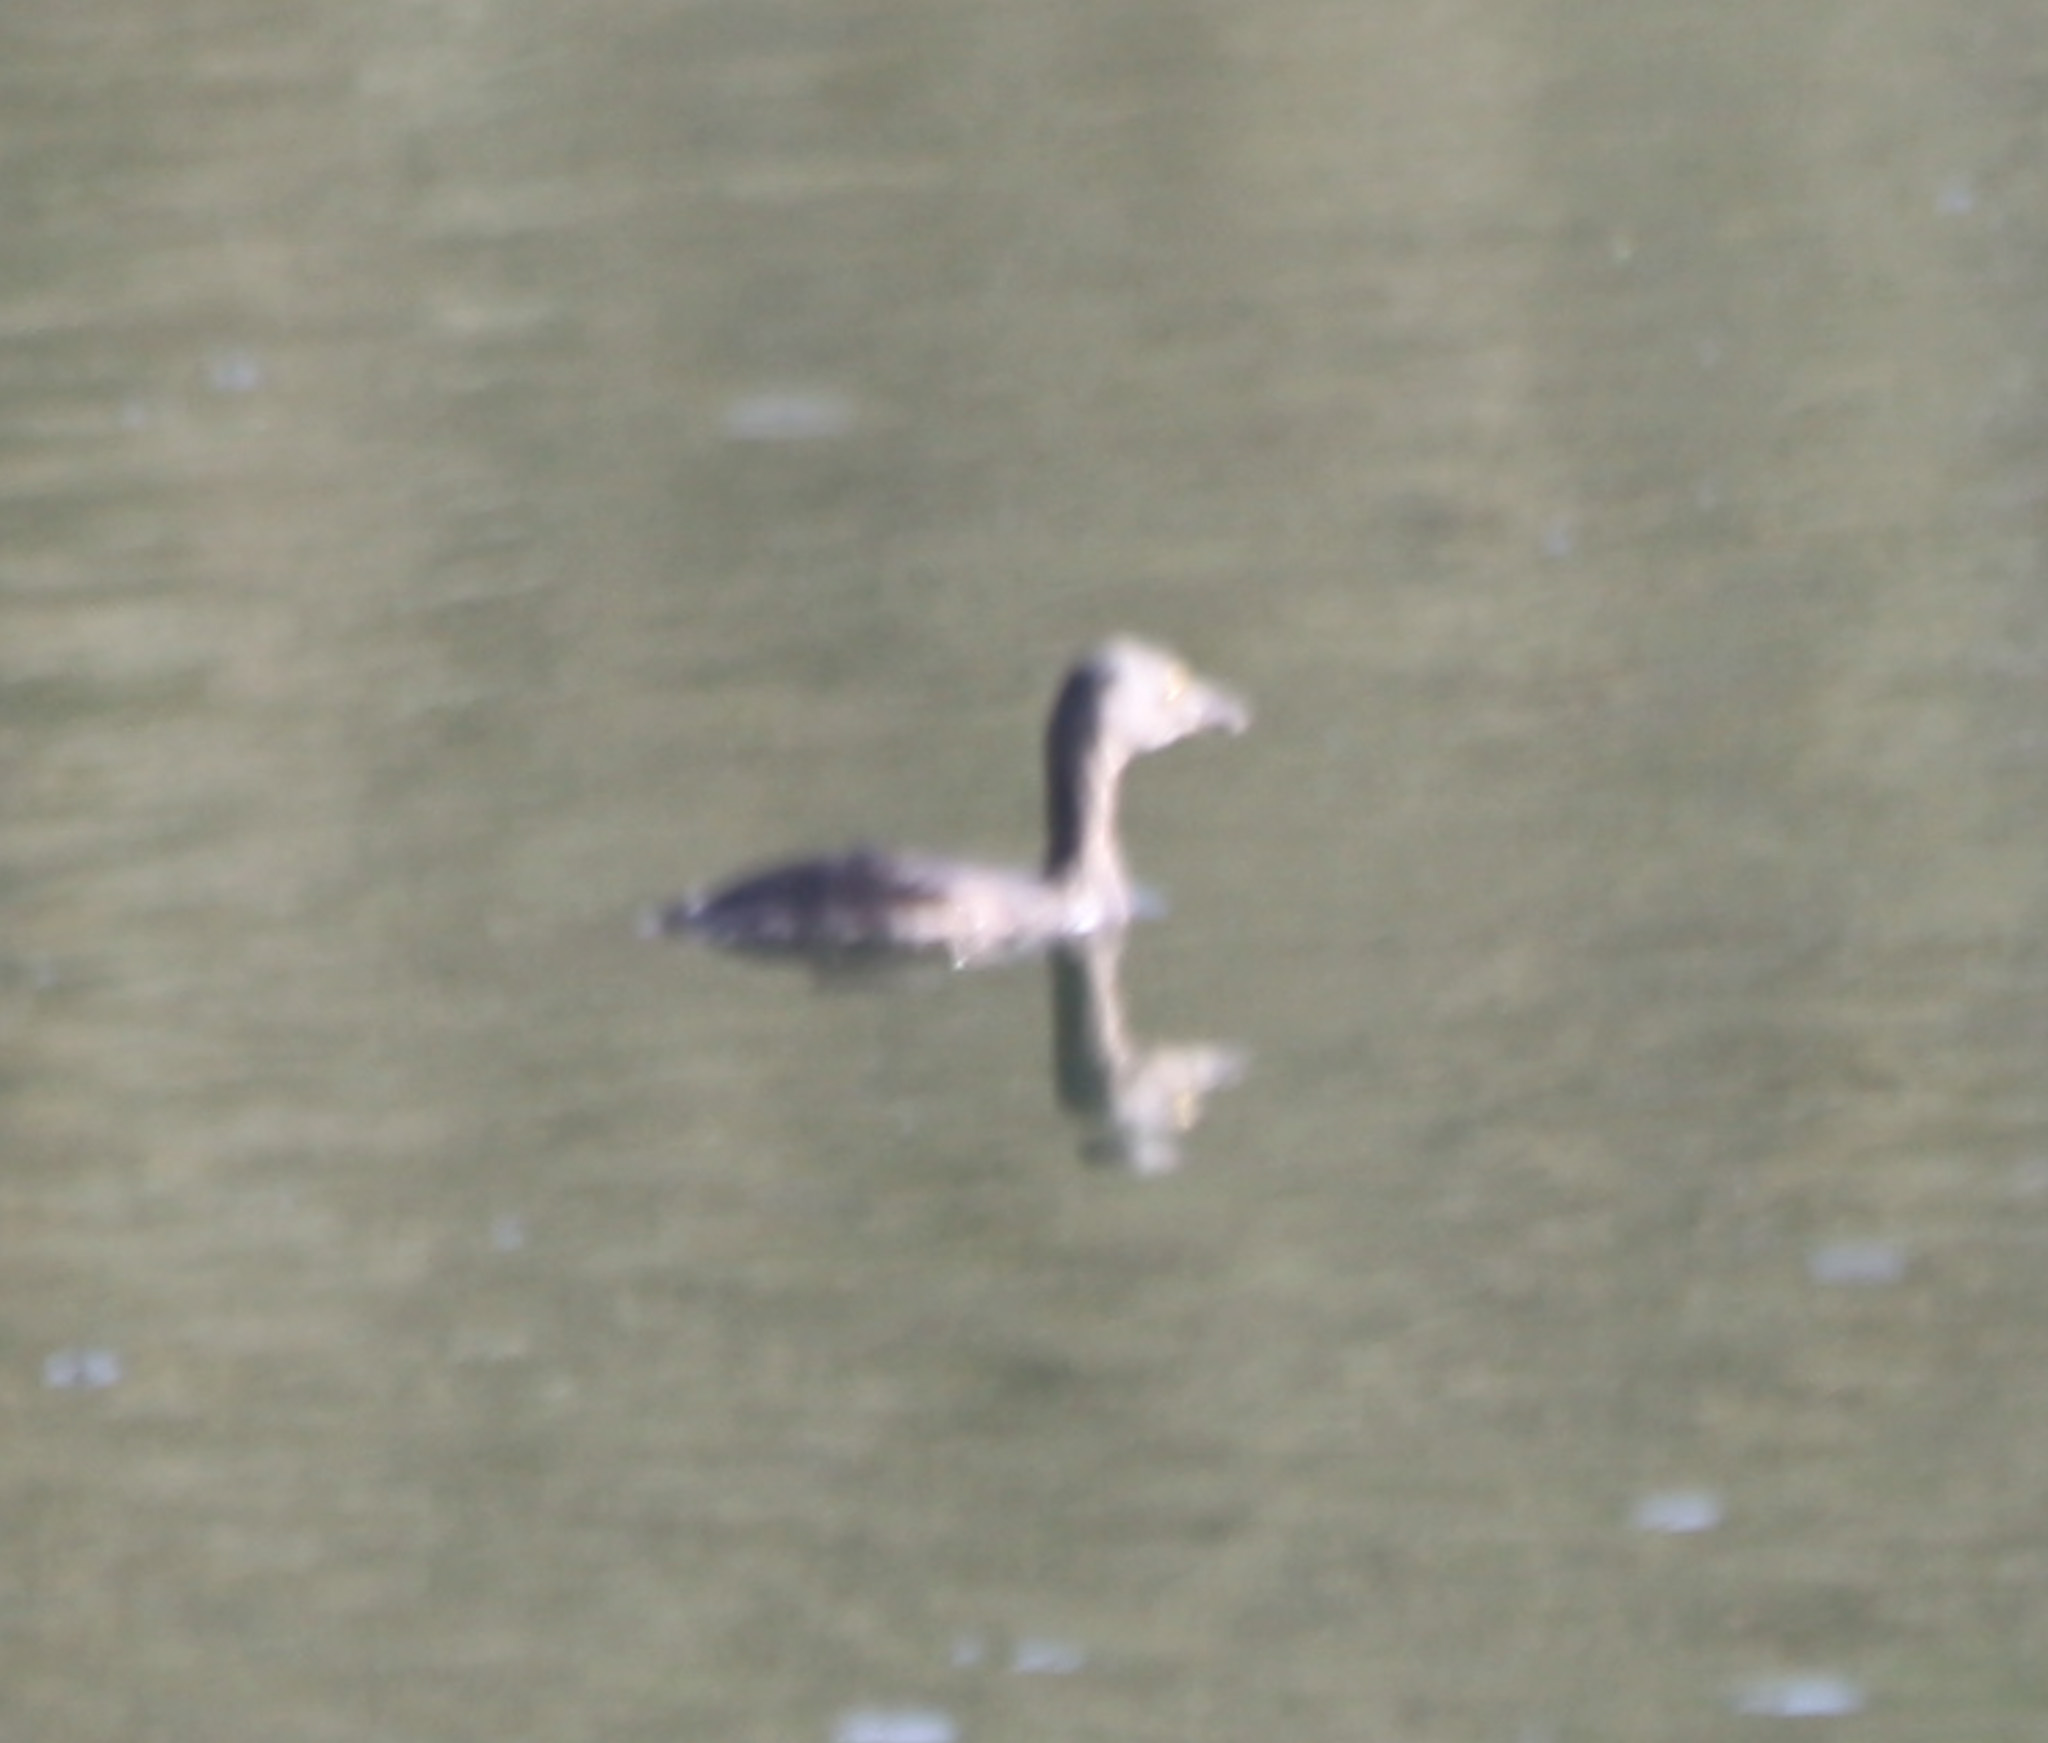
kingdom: Animalia
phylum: Chordata
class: Aves
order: Podicipediformes
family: Podicipedidae
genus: Tachybaptus
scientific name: Tachybaptus dominicus
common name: Least grebe
